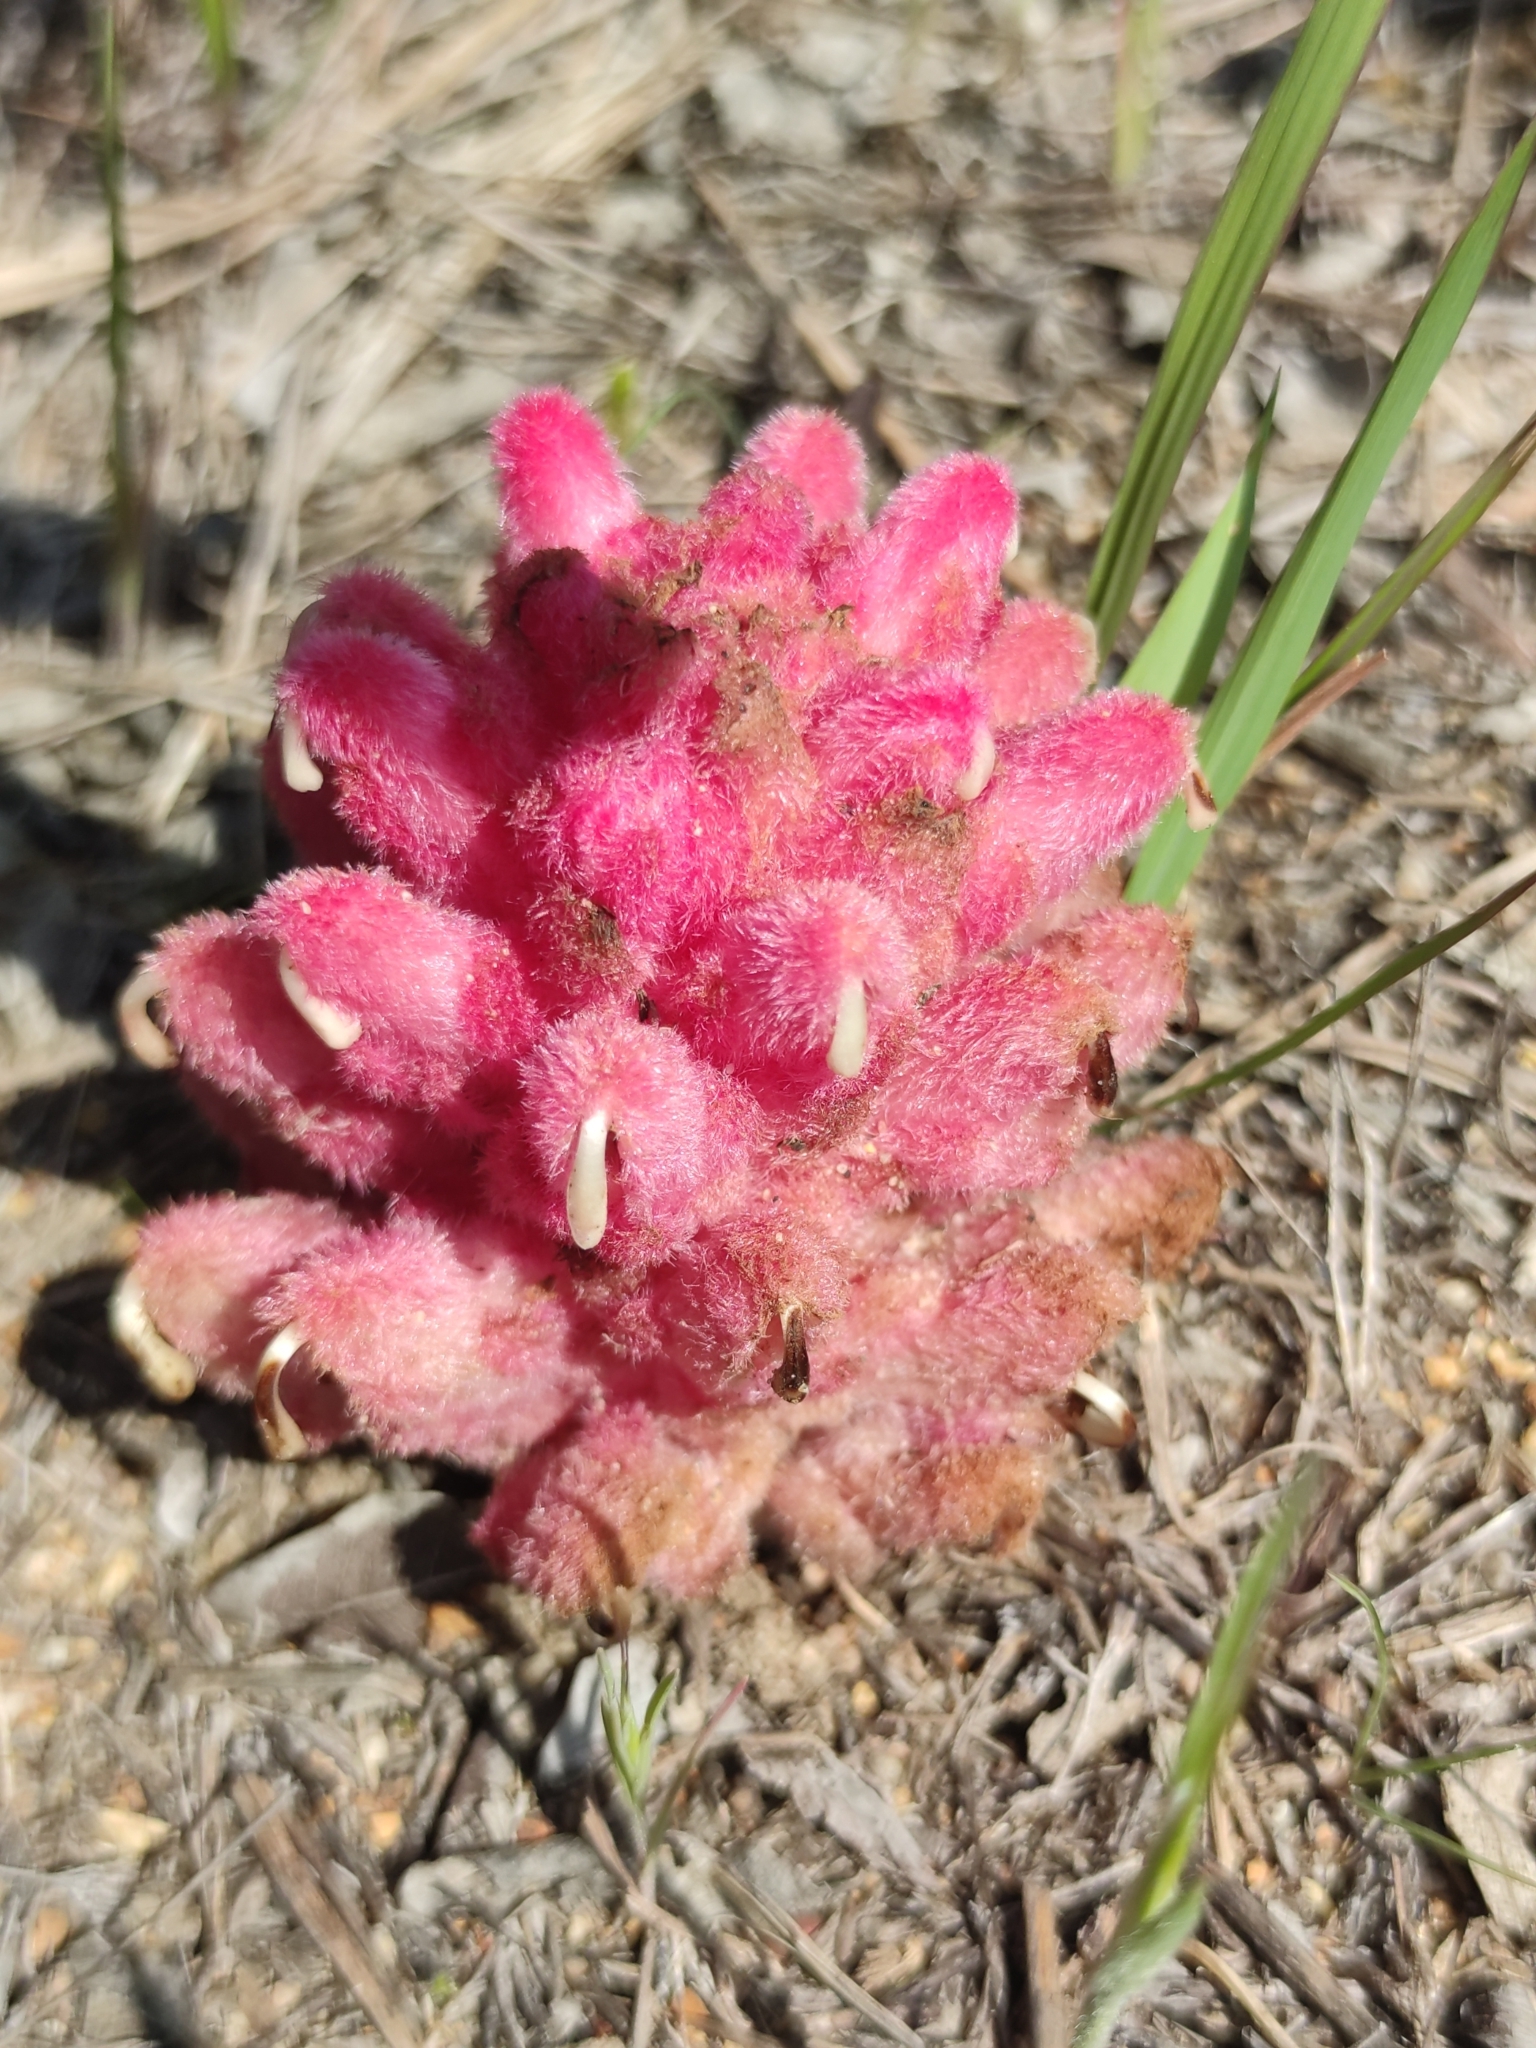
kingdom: Plantae
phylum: Tracheophyta
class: Magnoliopsida
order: Lamiales
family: Orobanchaceae
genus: Hyobanche
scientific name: Hyobanche sanguinea
